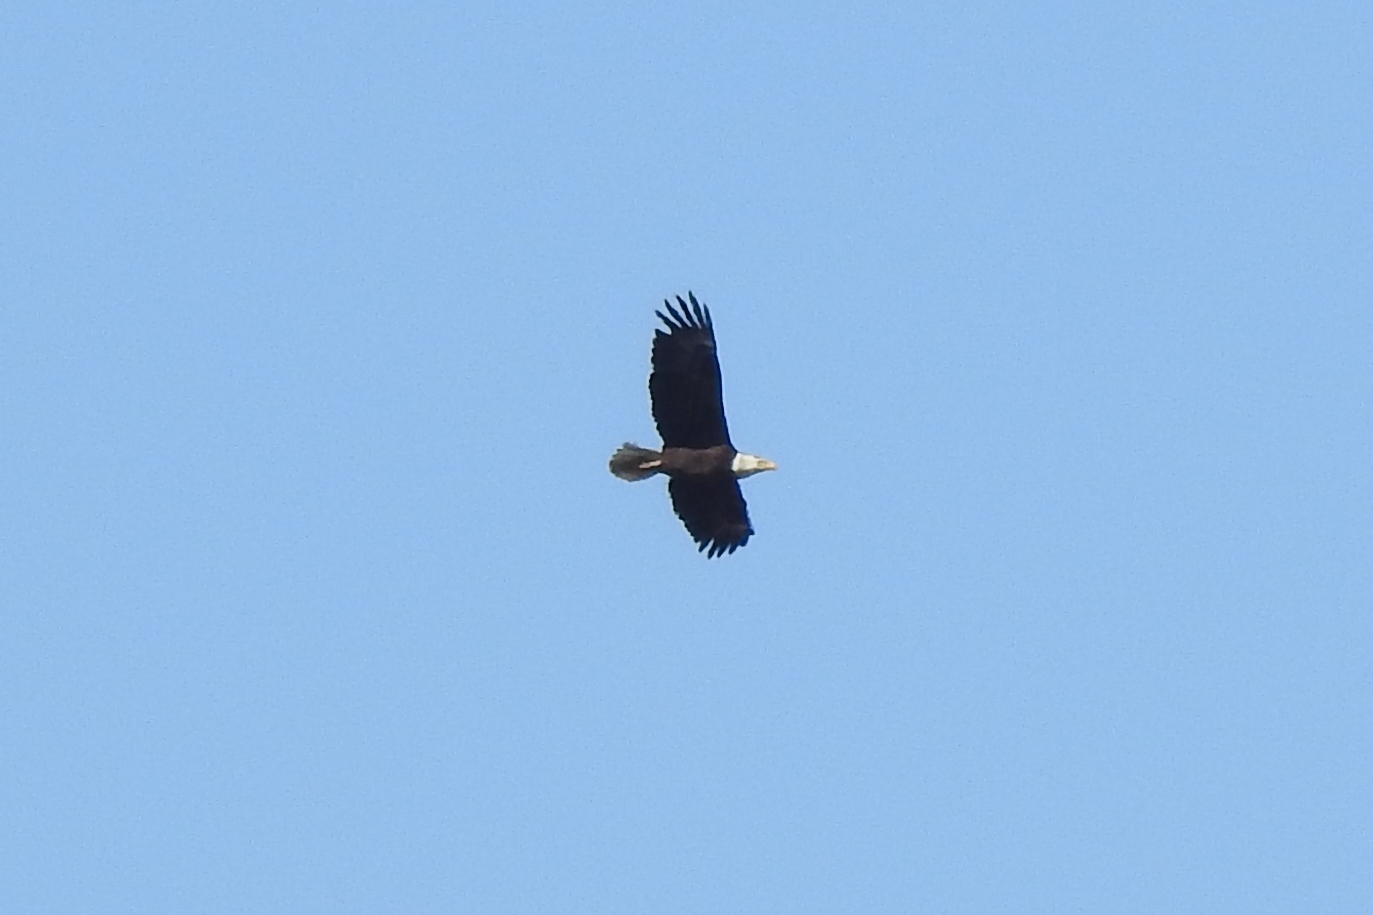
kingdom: Animalia
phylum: Chordata
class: Aves
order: Accipitriformes
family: Accipitridae
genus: Haliaeetus
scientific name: Haliaeetus leucocephalus
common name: Bald eagle
